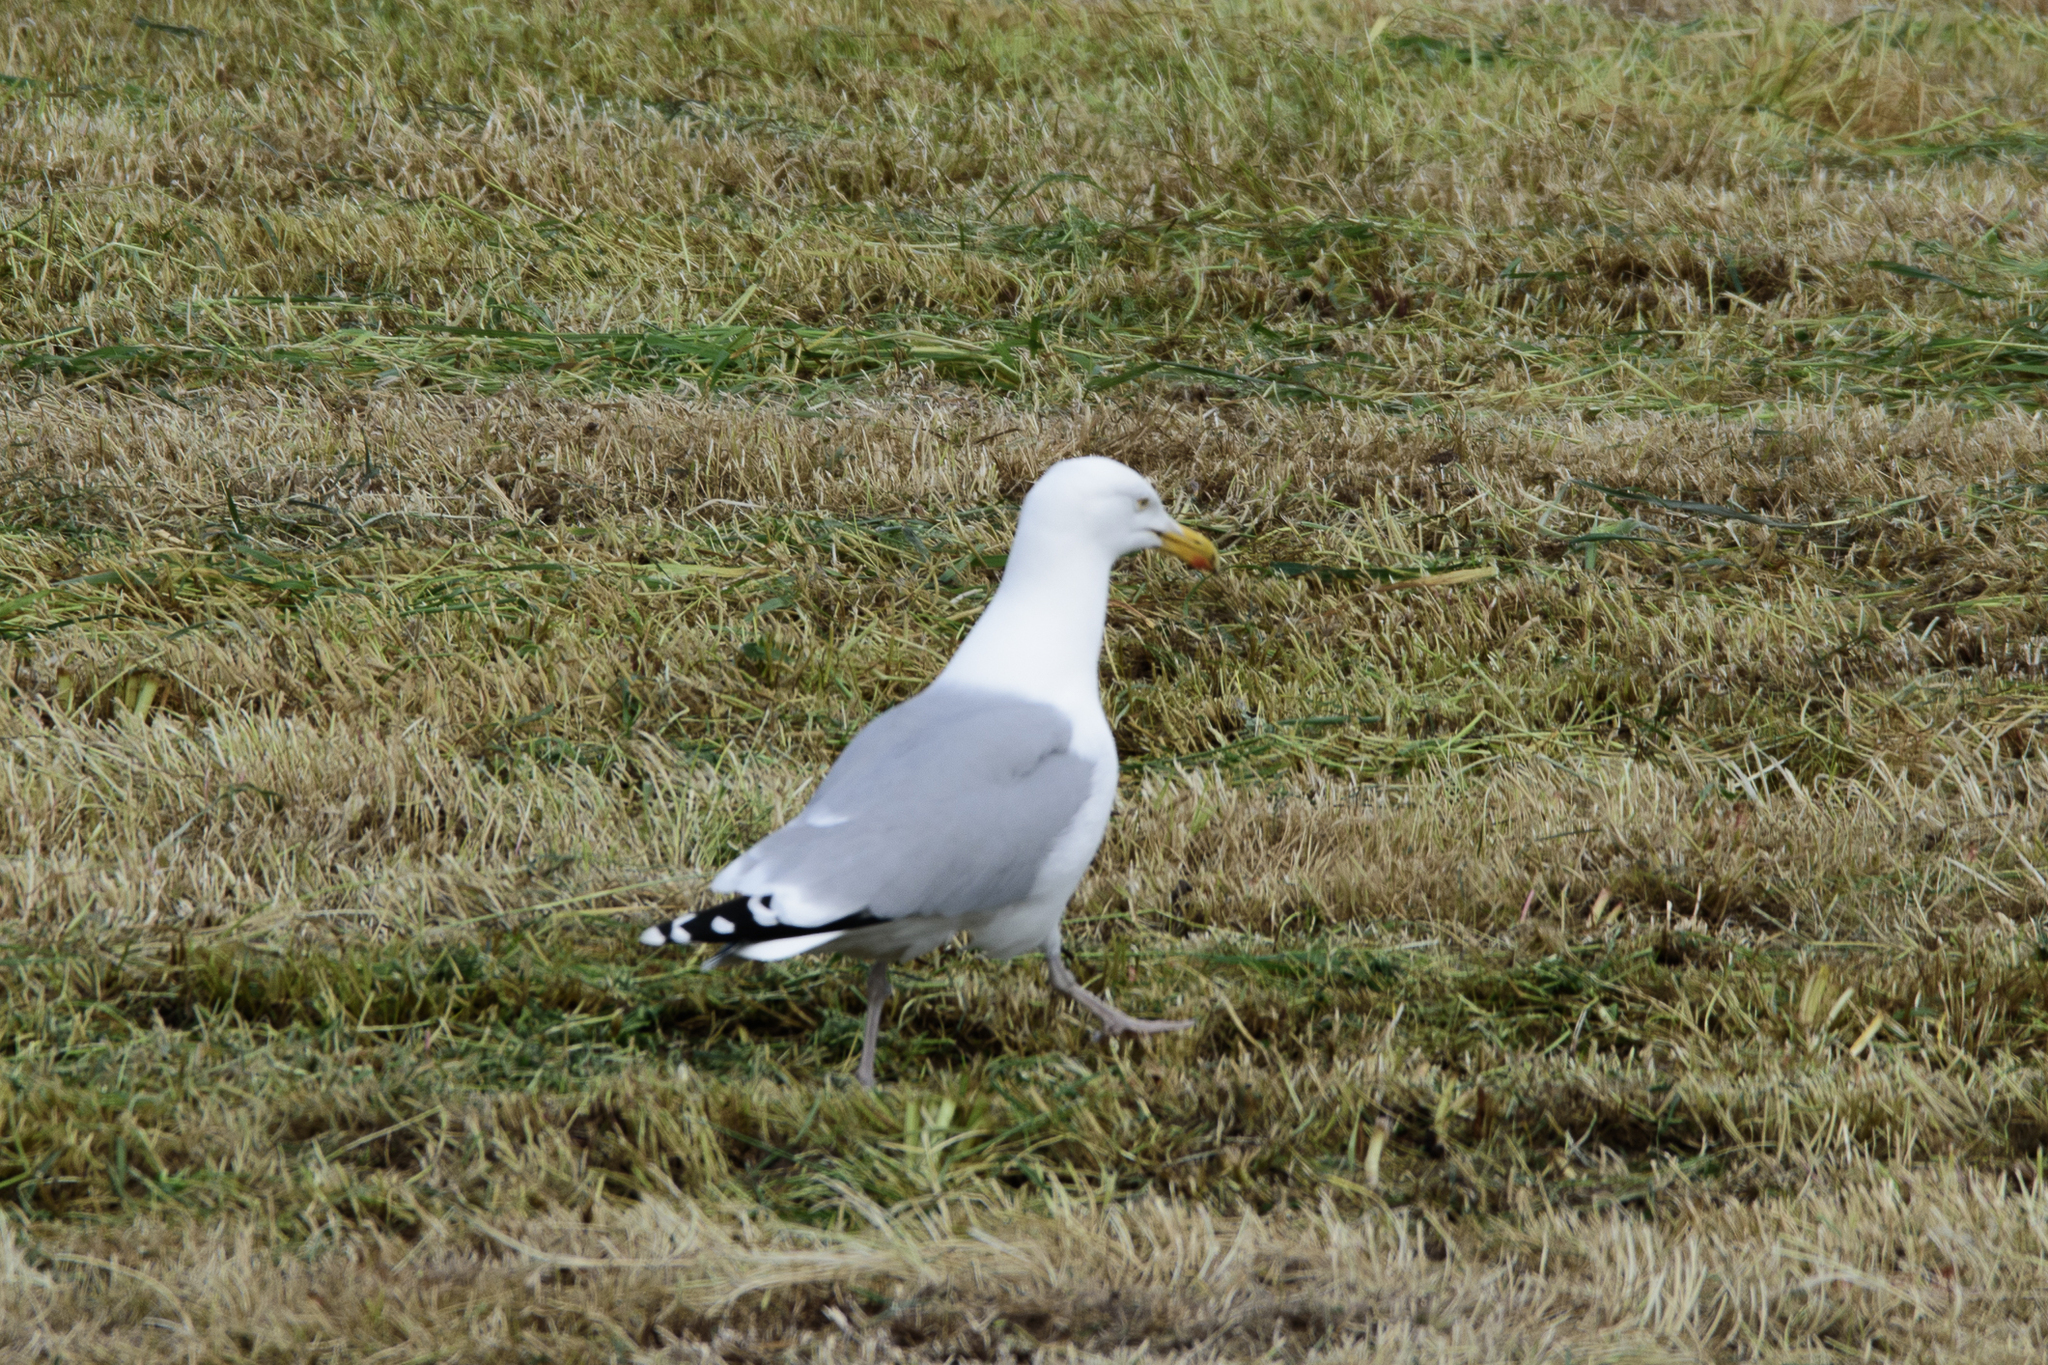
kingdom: Animalia
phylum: Chordata
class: Aves
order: Charadriiformes
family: Laridae
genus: Larus
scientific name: Larus argentatus
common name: Herring gull
